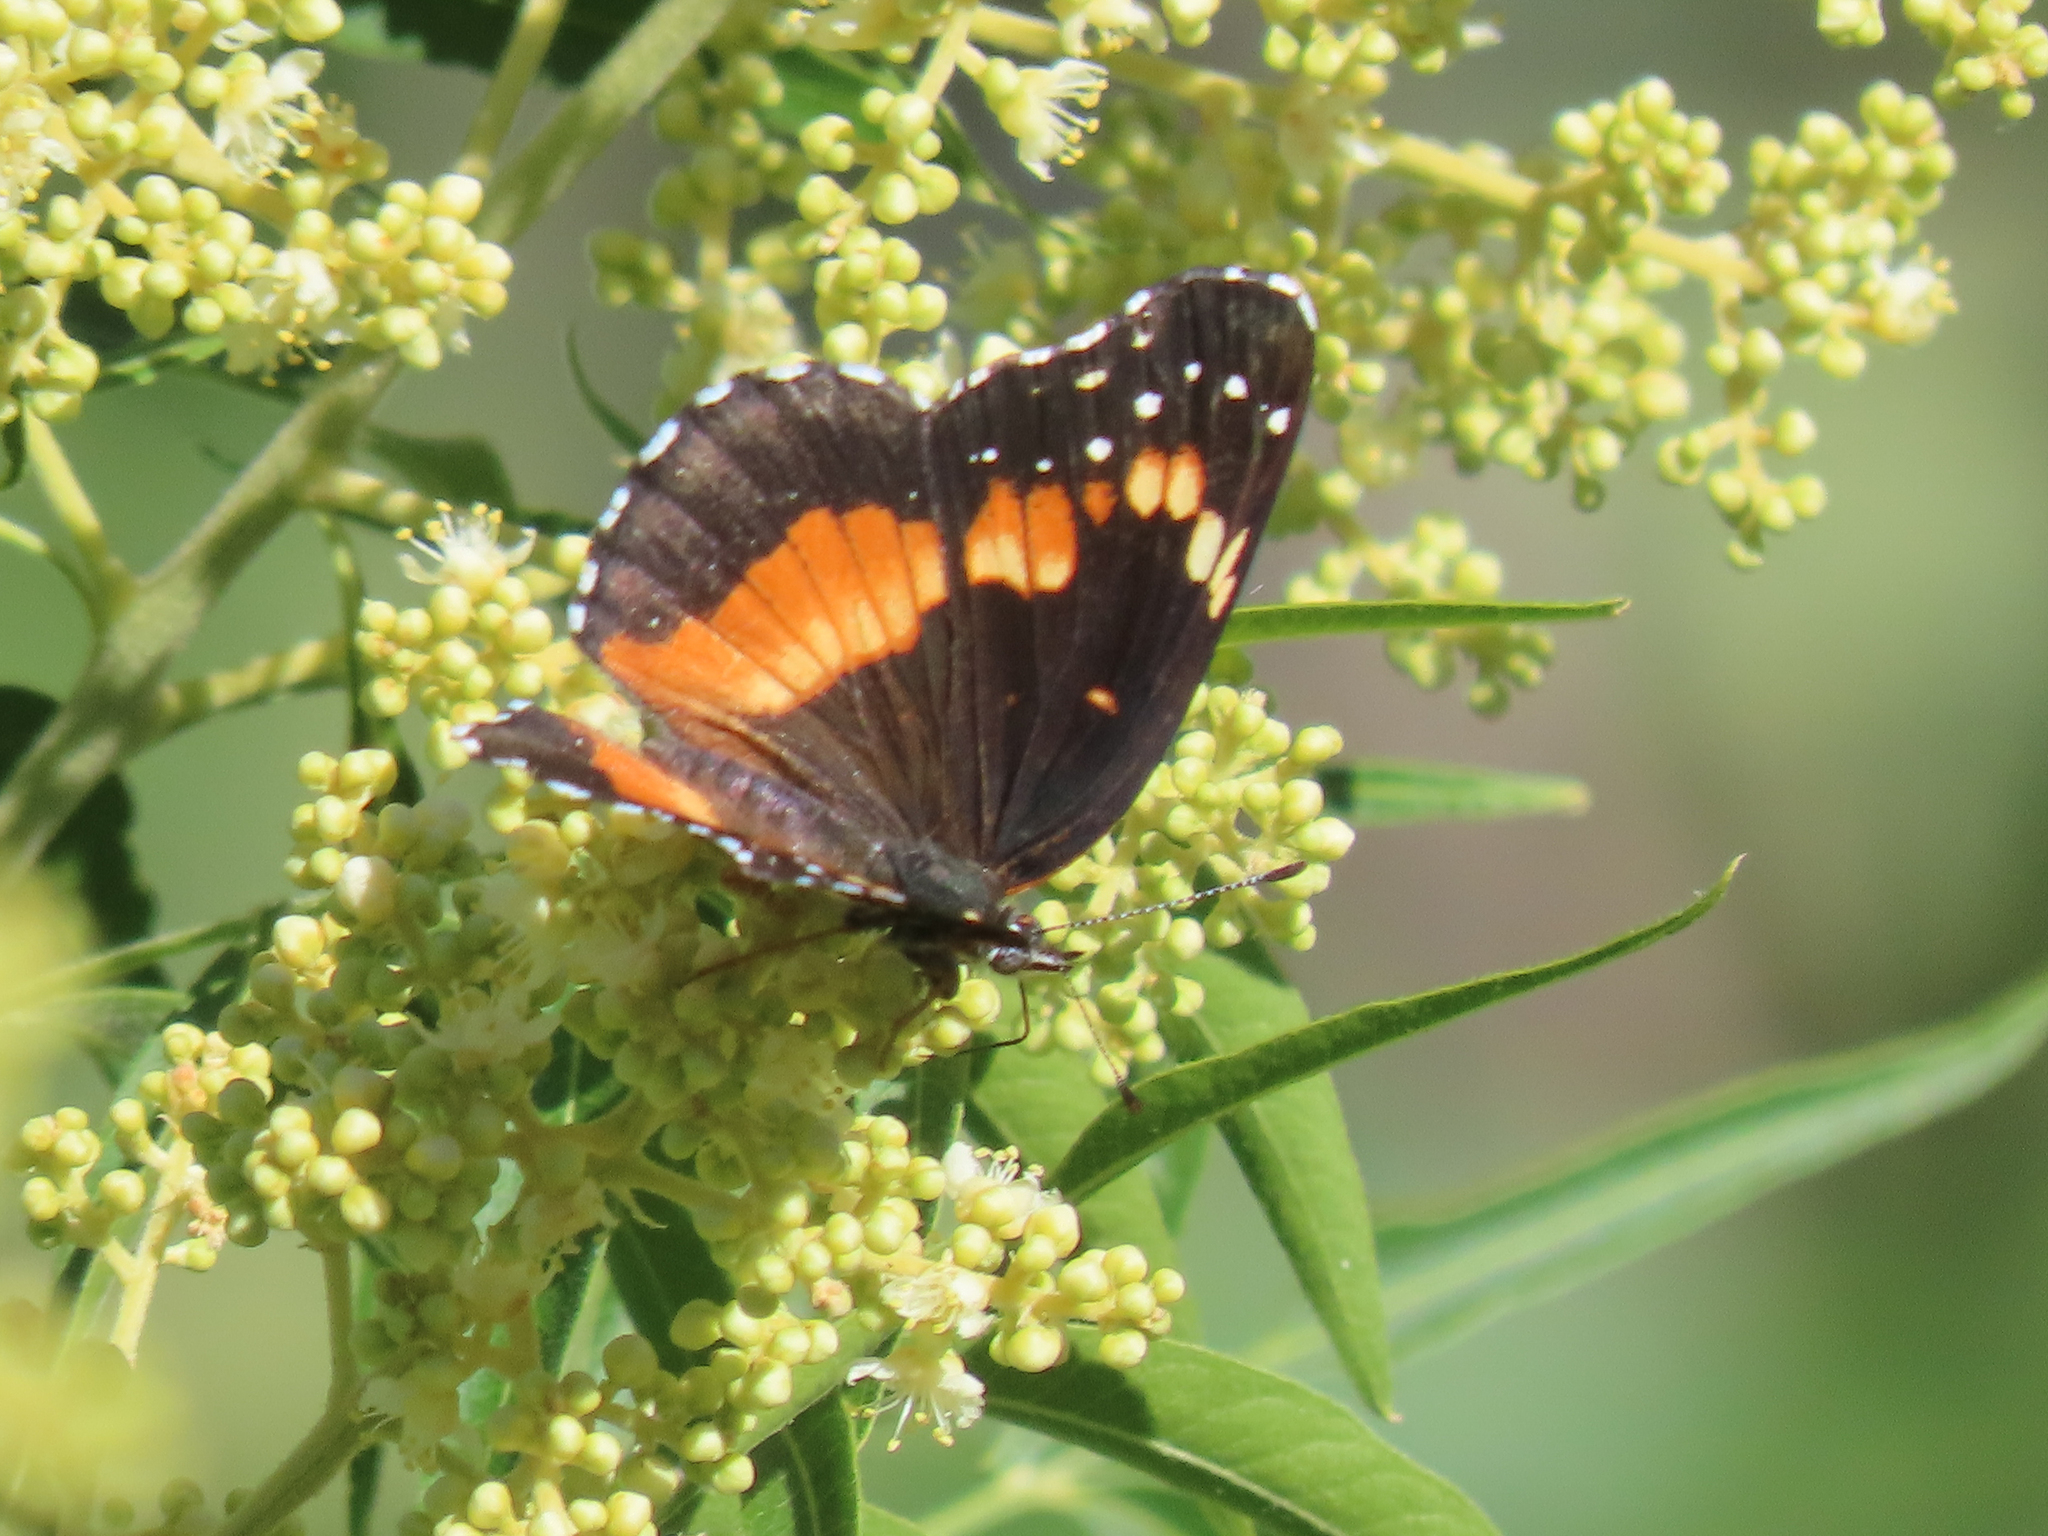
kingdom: Animalia
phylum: Arthropoda
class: Insecta
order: Lepidoptera
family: Nymphalidae
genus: Chlosyne
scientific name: Chlosyne lacinia
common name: Bordered patch
